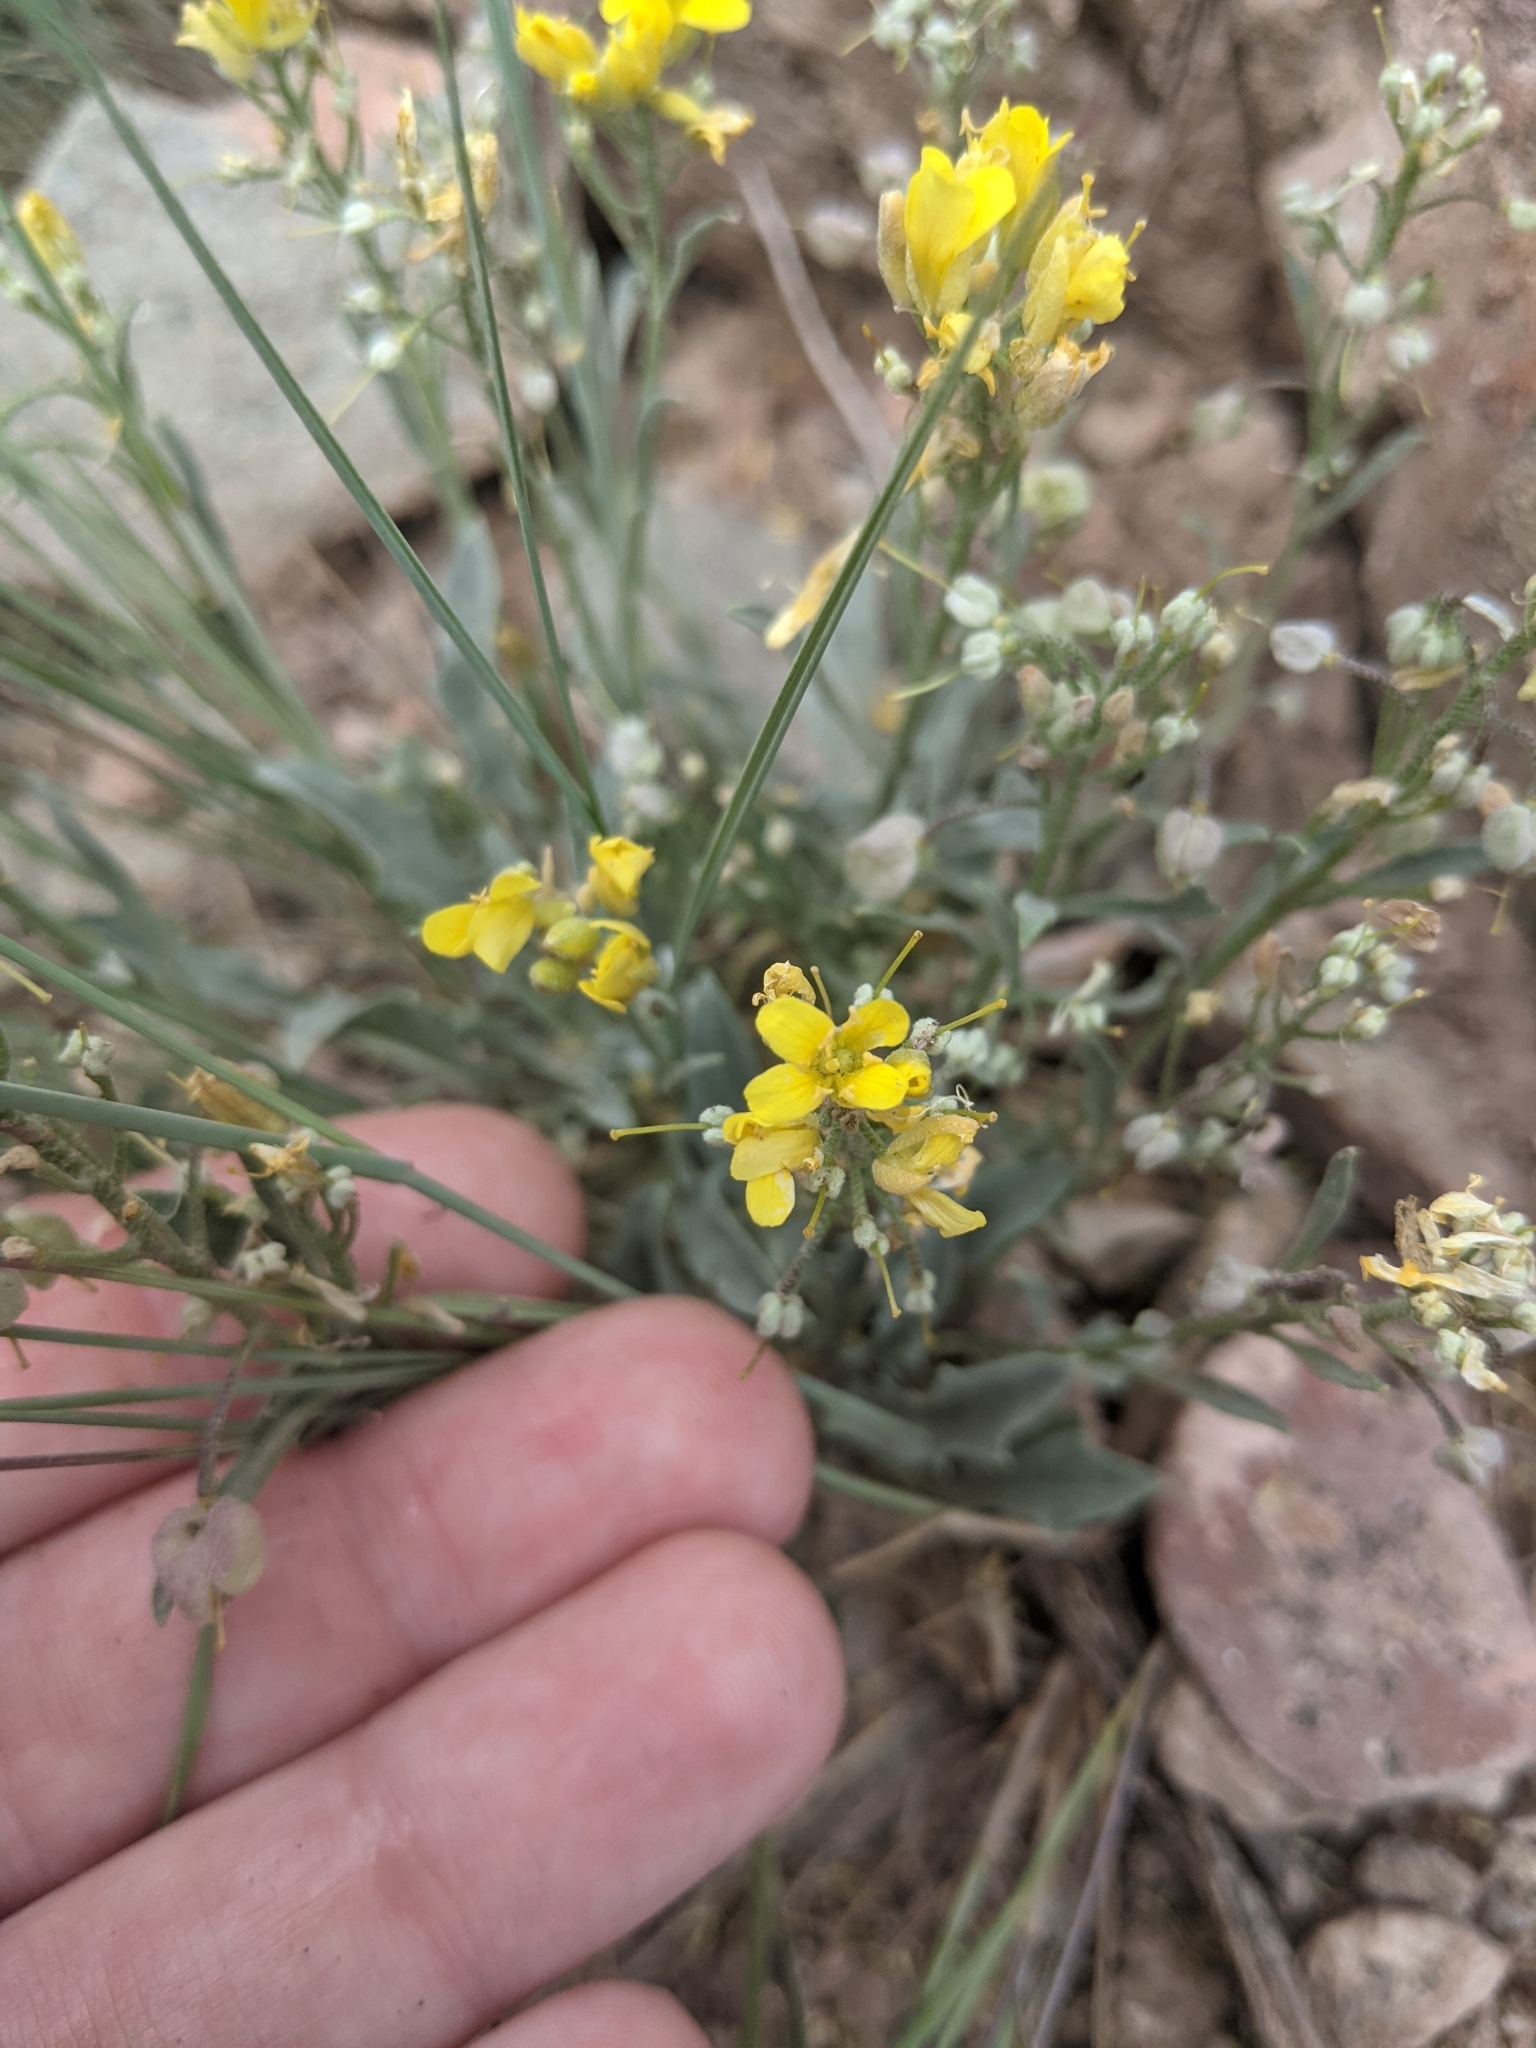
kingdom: Plantae
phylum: Tracheophyta
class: Magnoliopsida
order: Brassicales
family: Brassicaceae
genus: Physaria
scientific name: Physaria floribunda
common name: Point-tip twinpod
